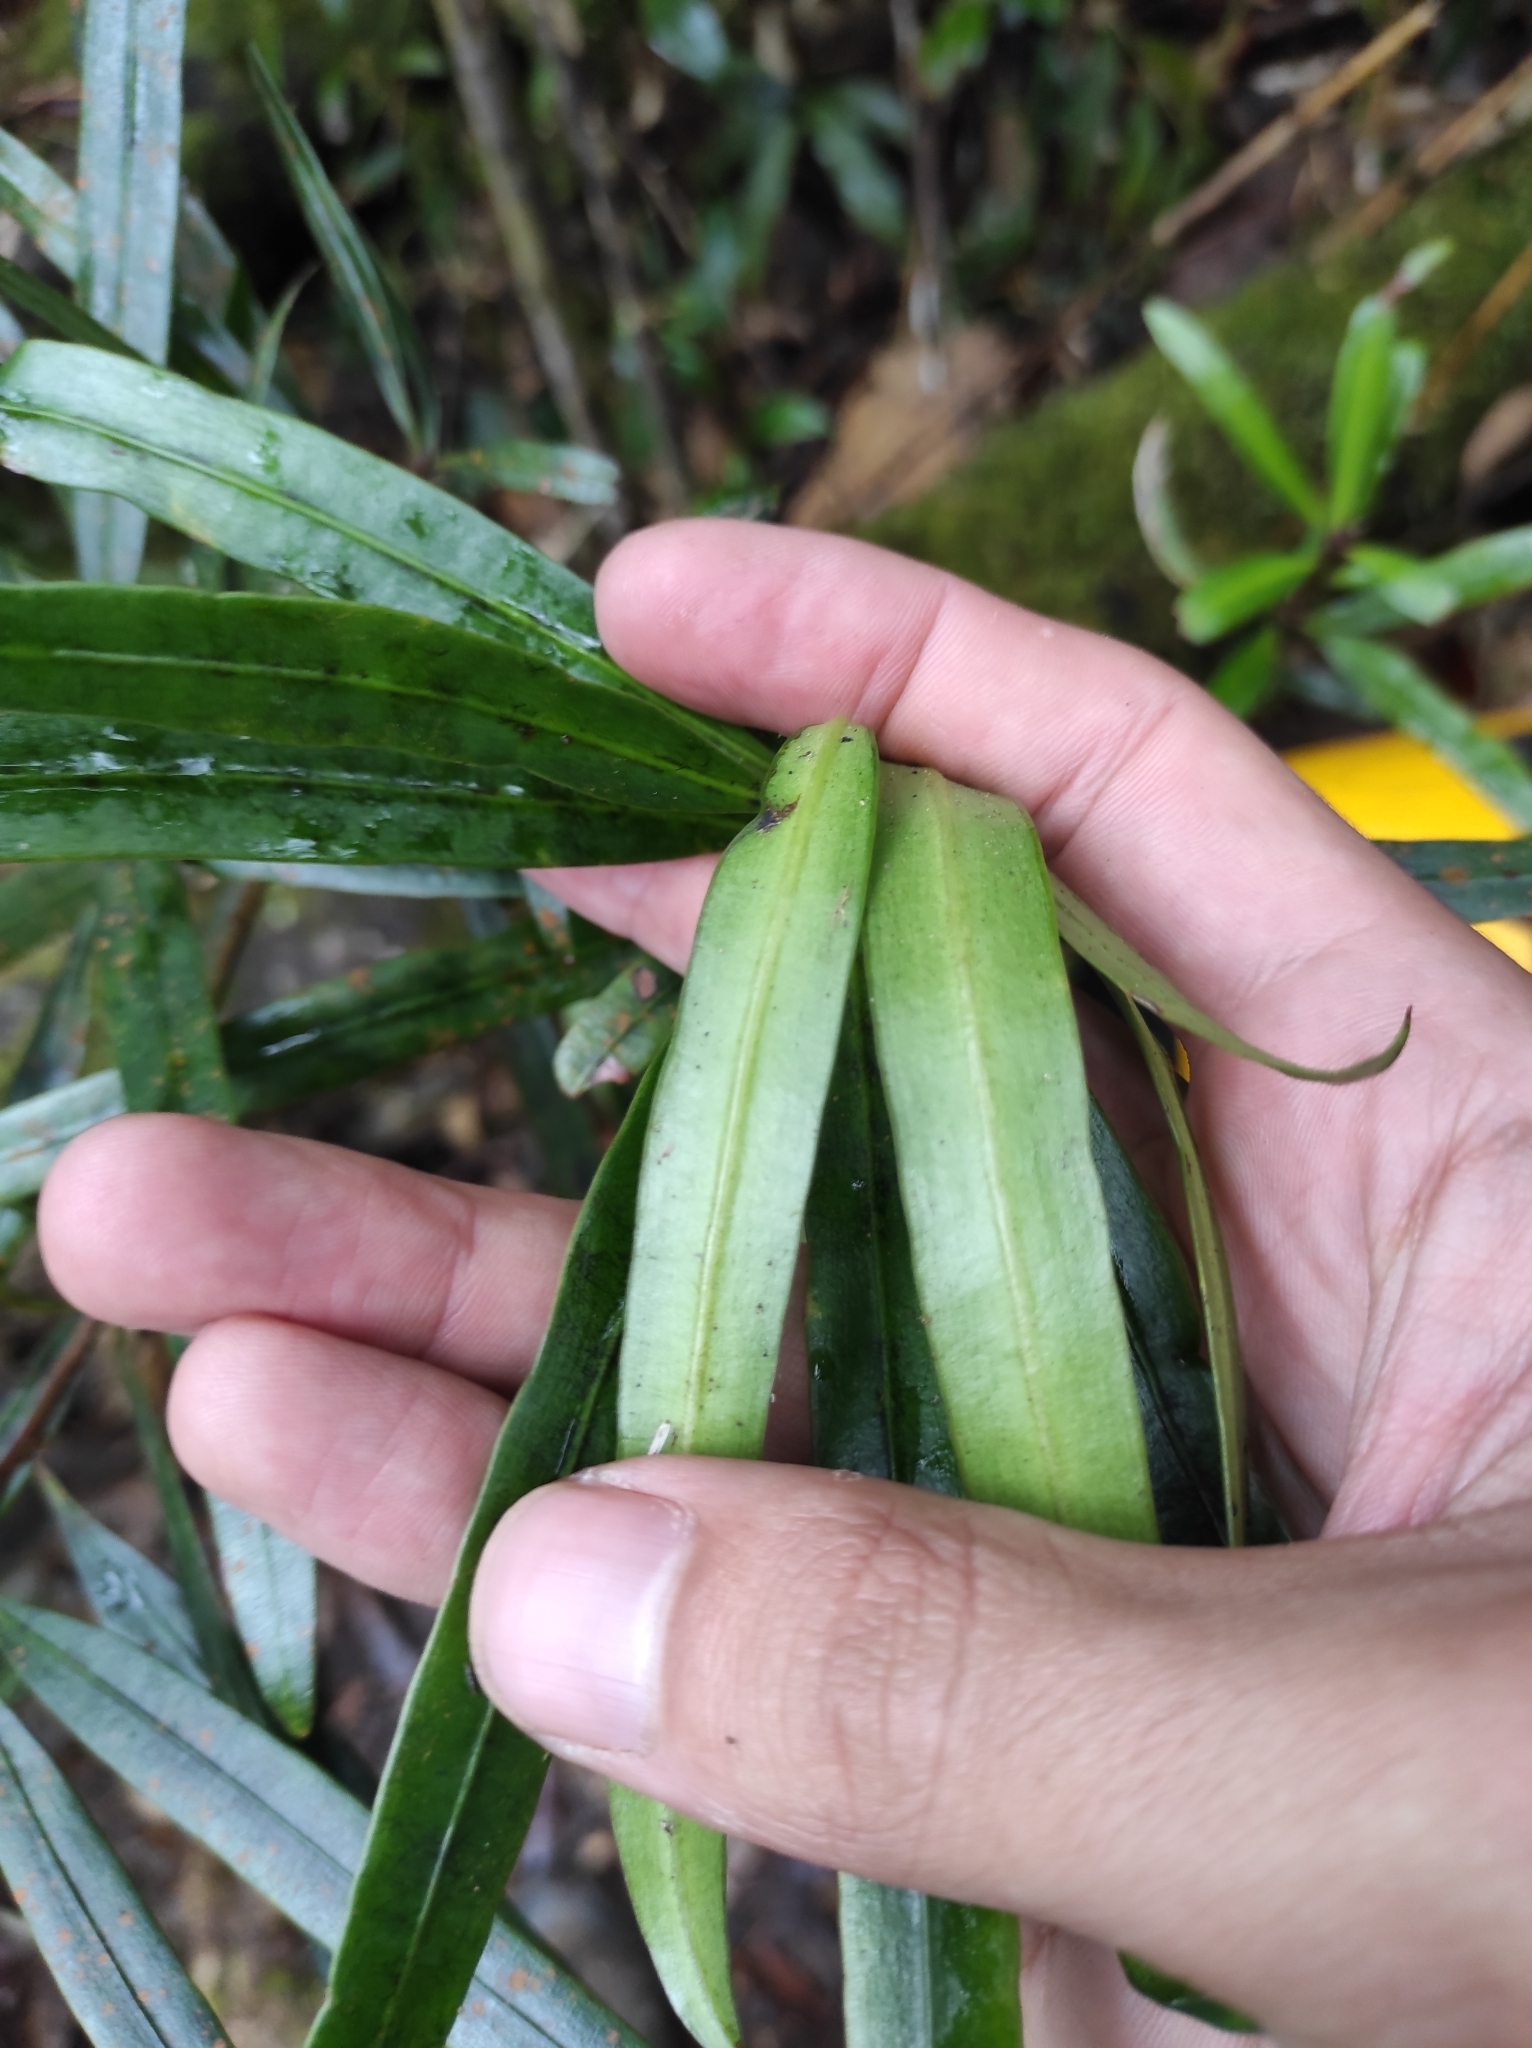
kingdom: Plantae
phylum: Tracheophyta
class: Pinopsida
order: Pinales
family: Podocarpaceae
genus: Podocarpus
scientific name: Podocarpus neriifolius
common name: Brown pine
